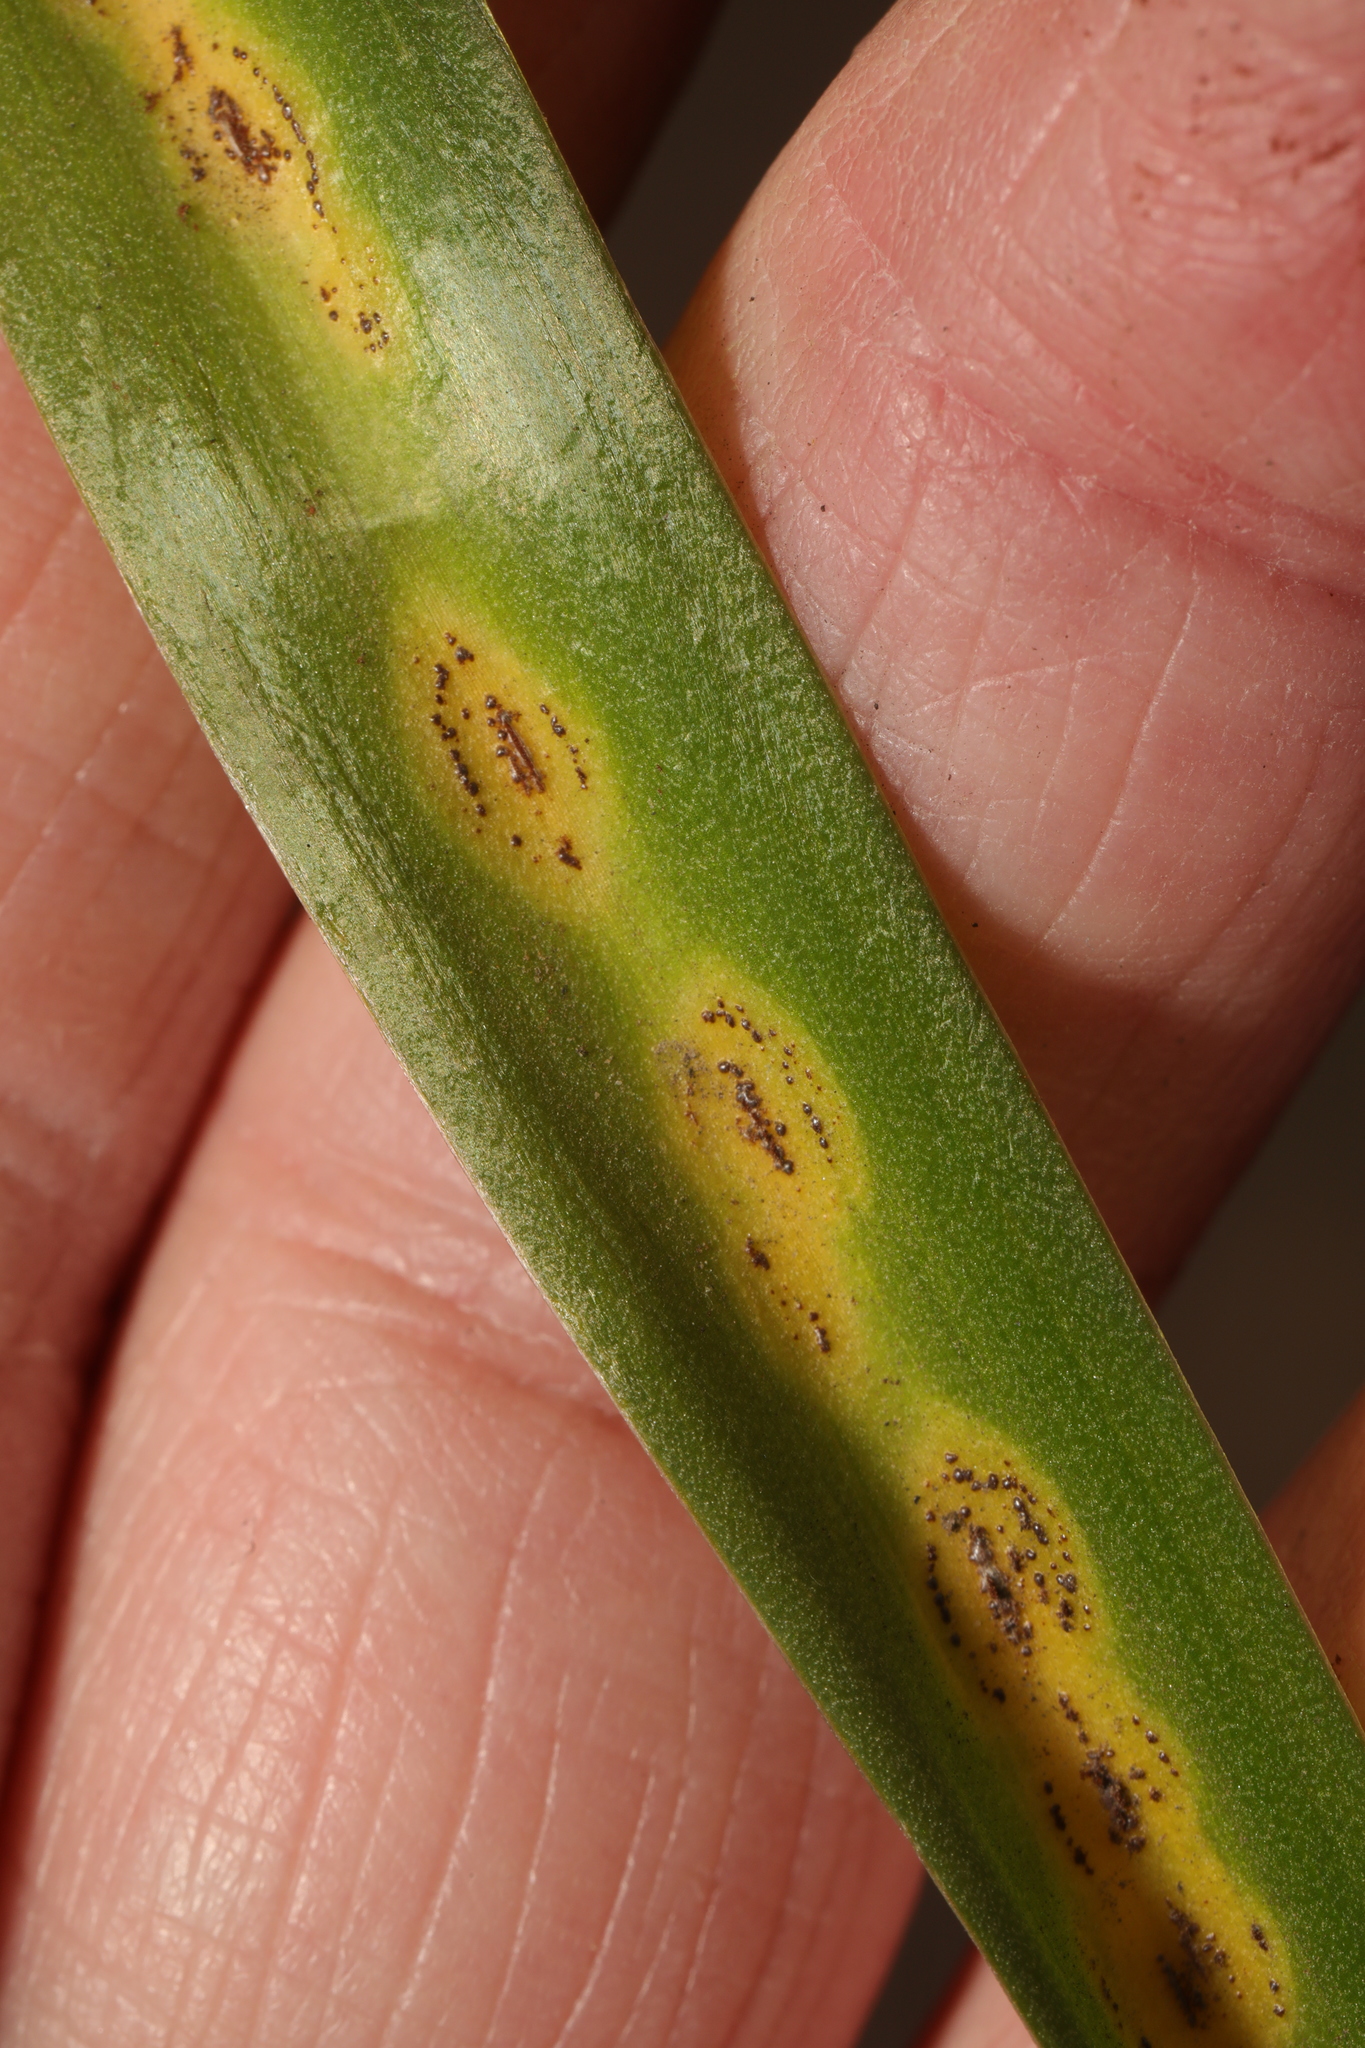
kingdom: Fungi
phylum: Basidiomycota
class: Pucciniomycetes
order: Pucciniales
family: Pucciniaceae
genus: Uromyces
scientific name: Uromyces hyacinthi
